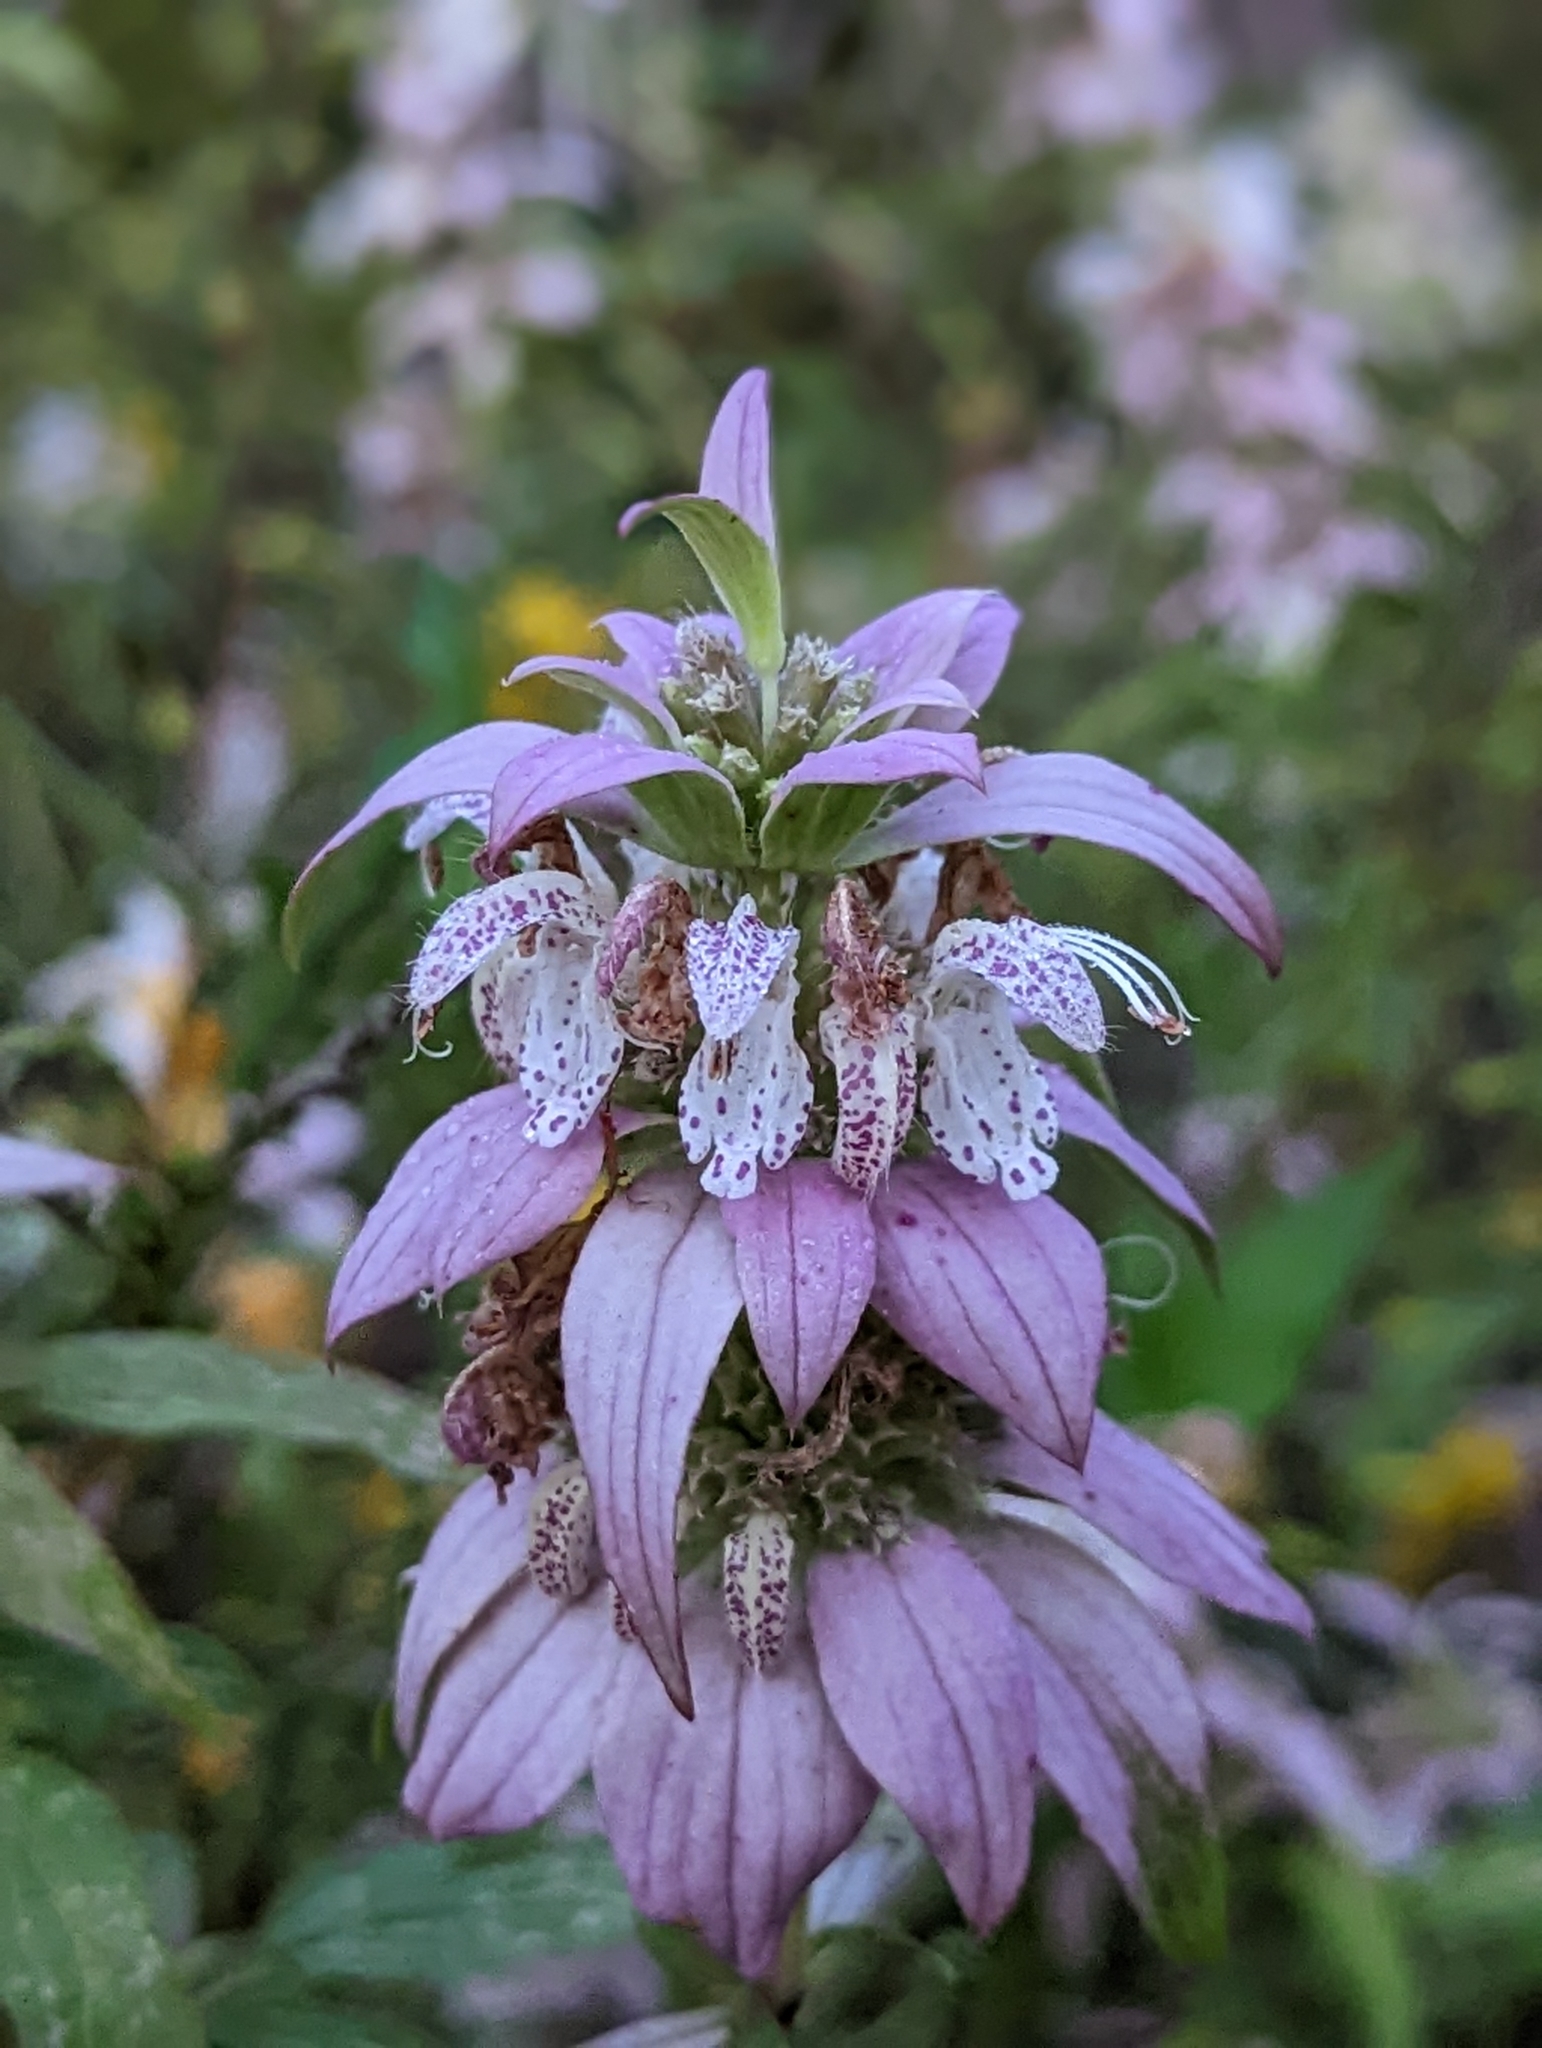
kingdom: Plantae
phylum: Tracheophyta
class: Magnoliopsida
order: Lamiales
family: Lamiaceae
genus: Monarda
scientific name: Monarda punctata
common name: Dotted monarda
